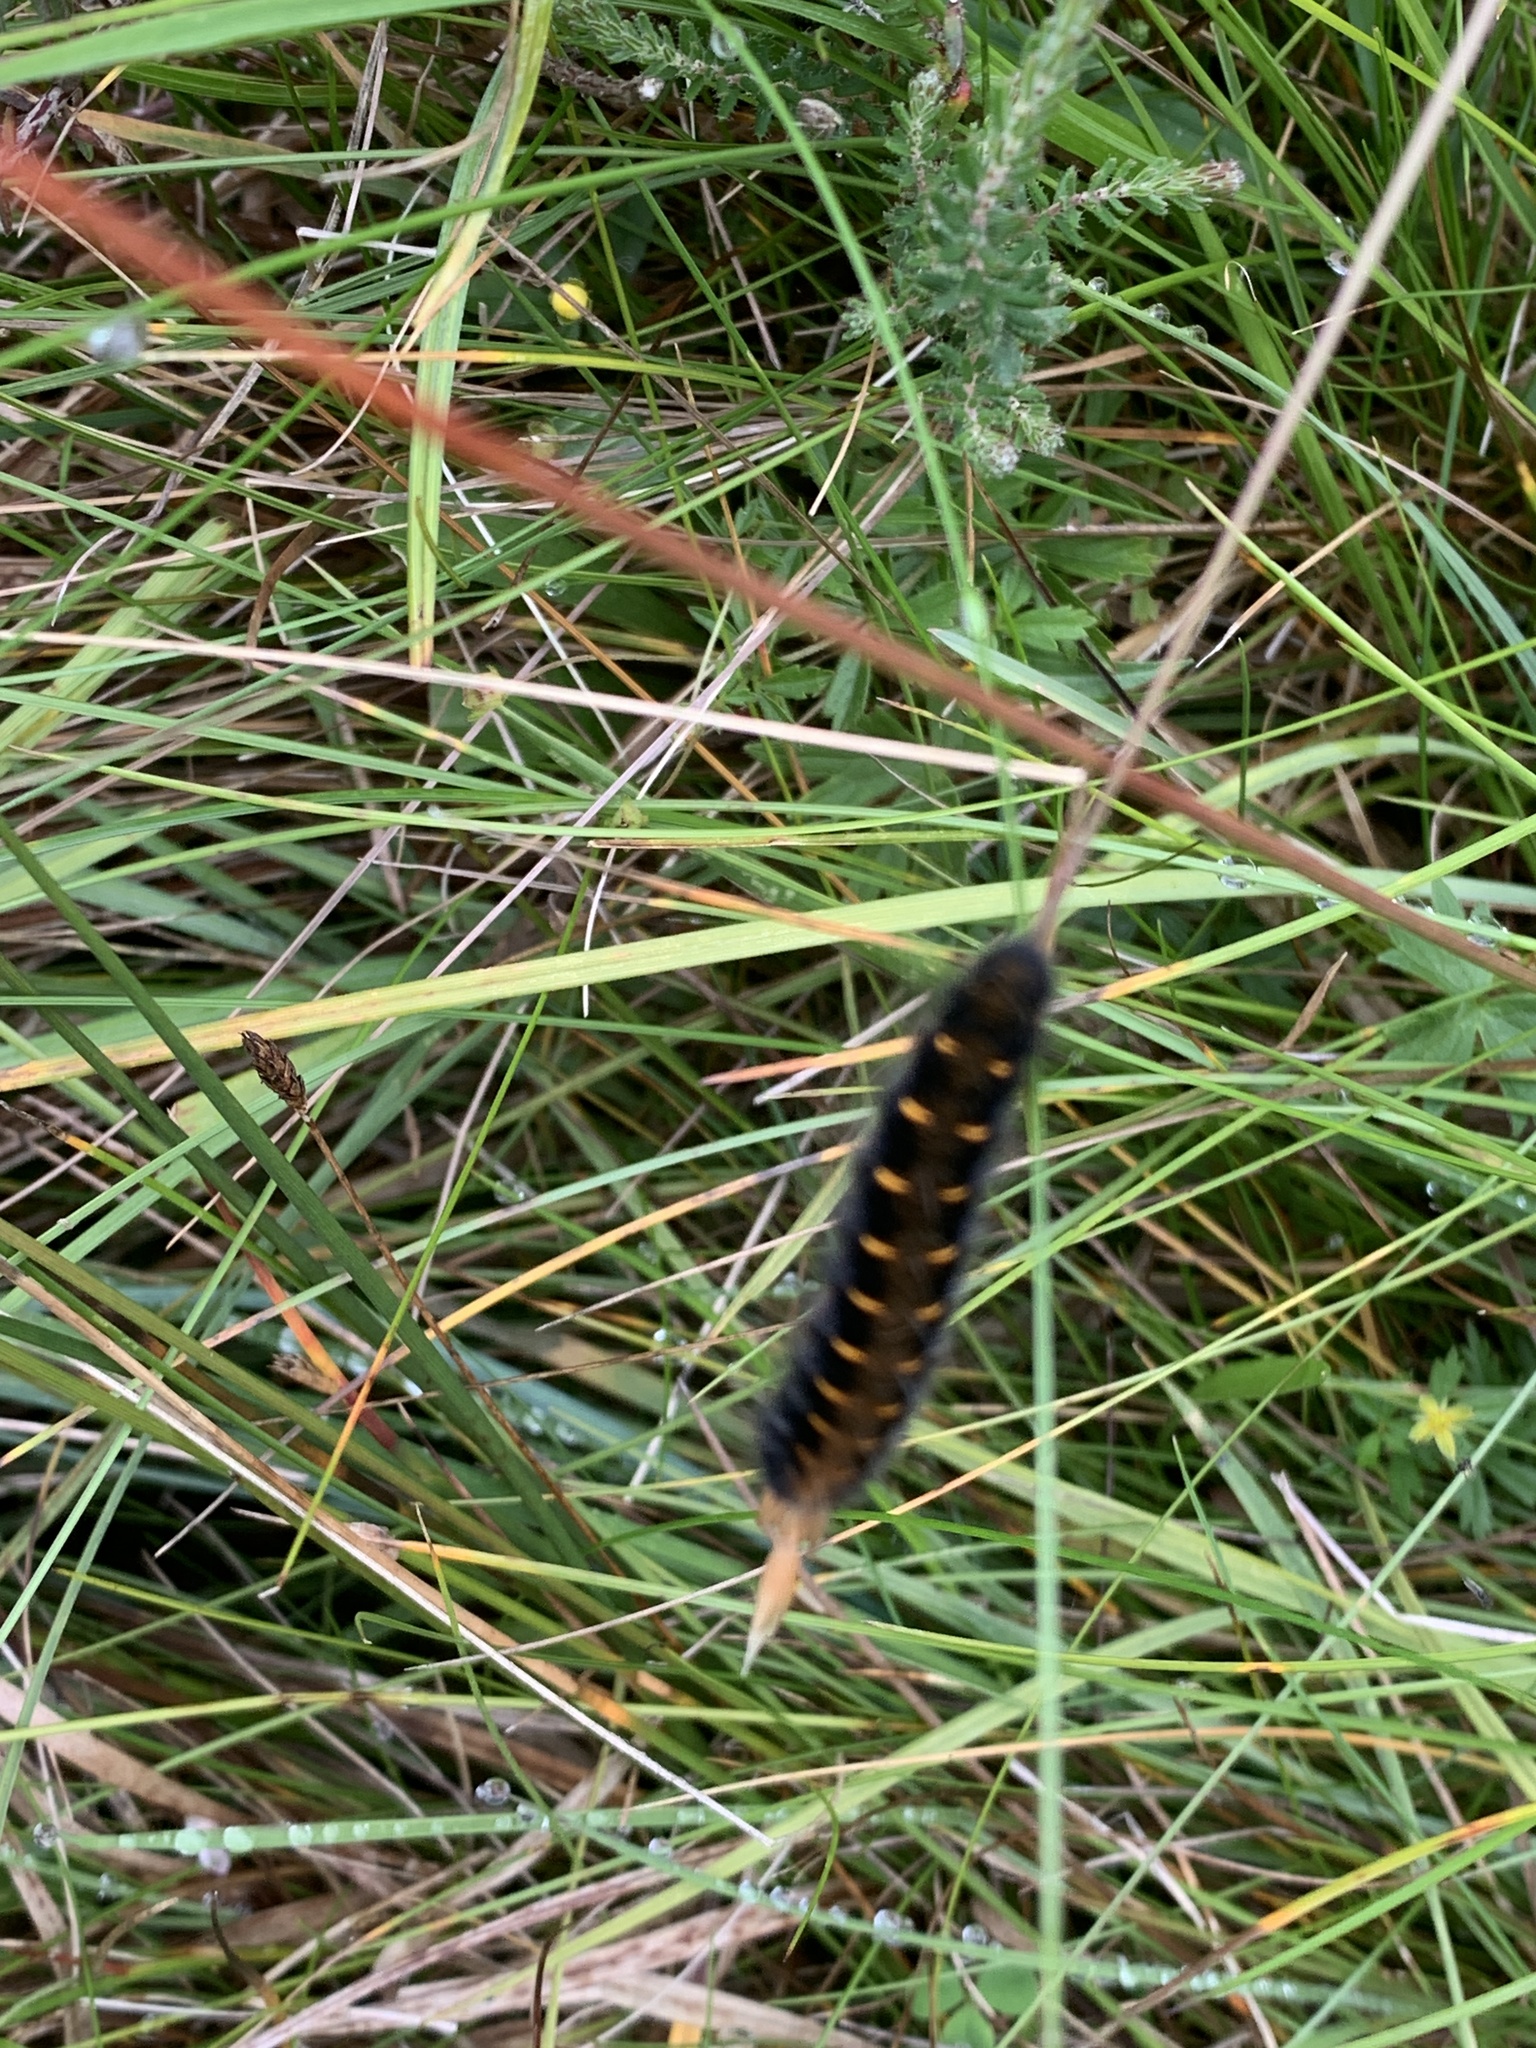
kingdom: Animalia
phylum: Arthropoda
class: Insecta
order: Lepidoptera
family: Lasiocampidae
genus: Macrothylacia
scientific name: Macrothylacia rubi
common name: Fox moth
